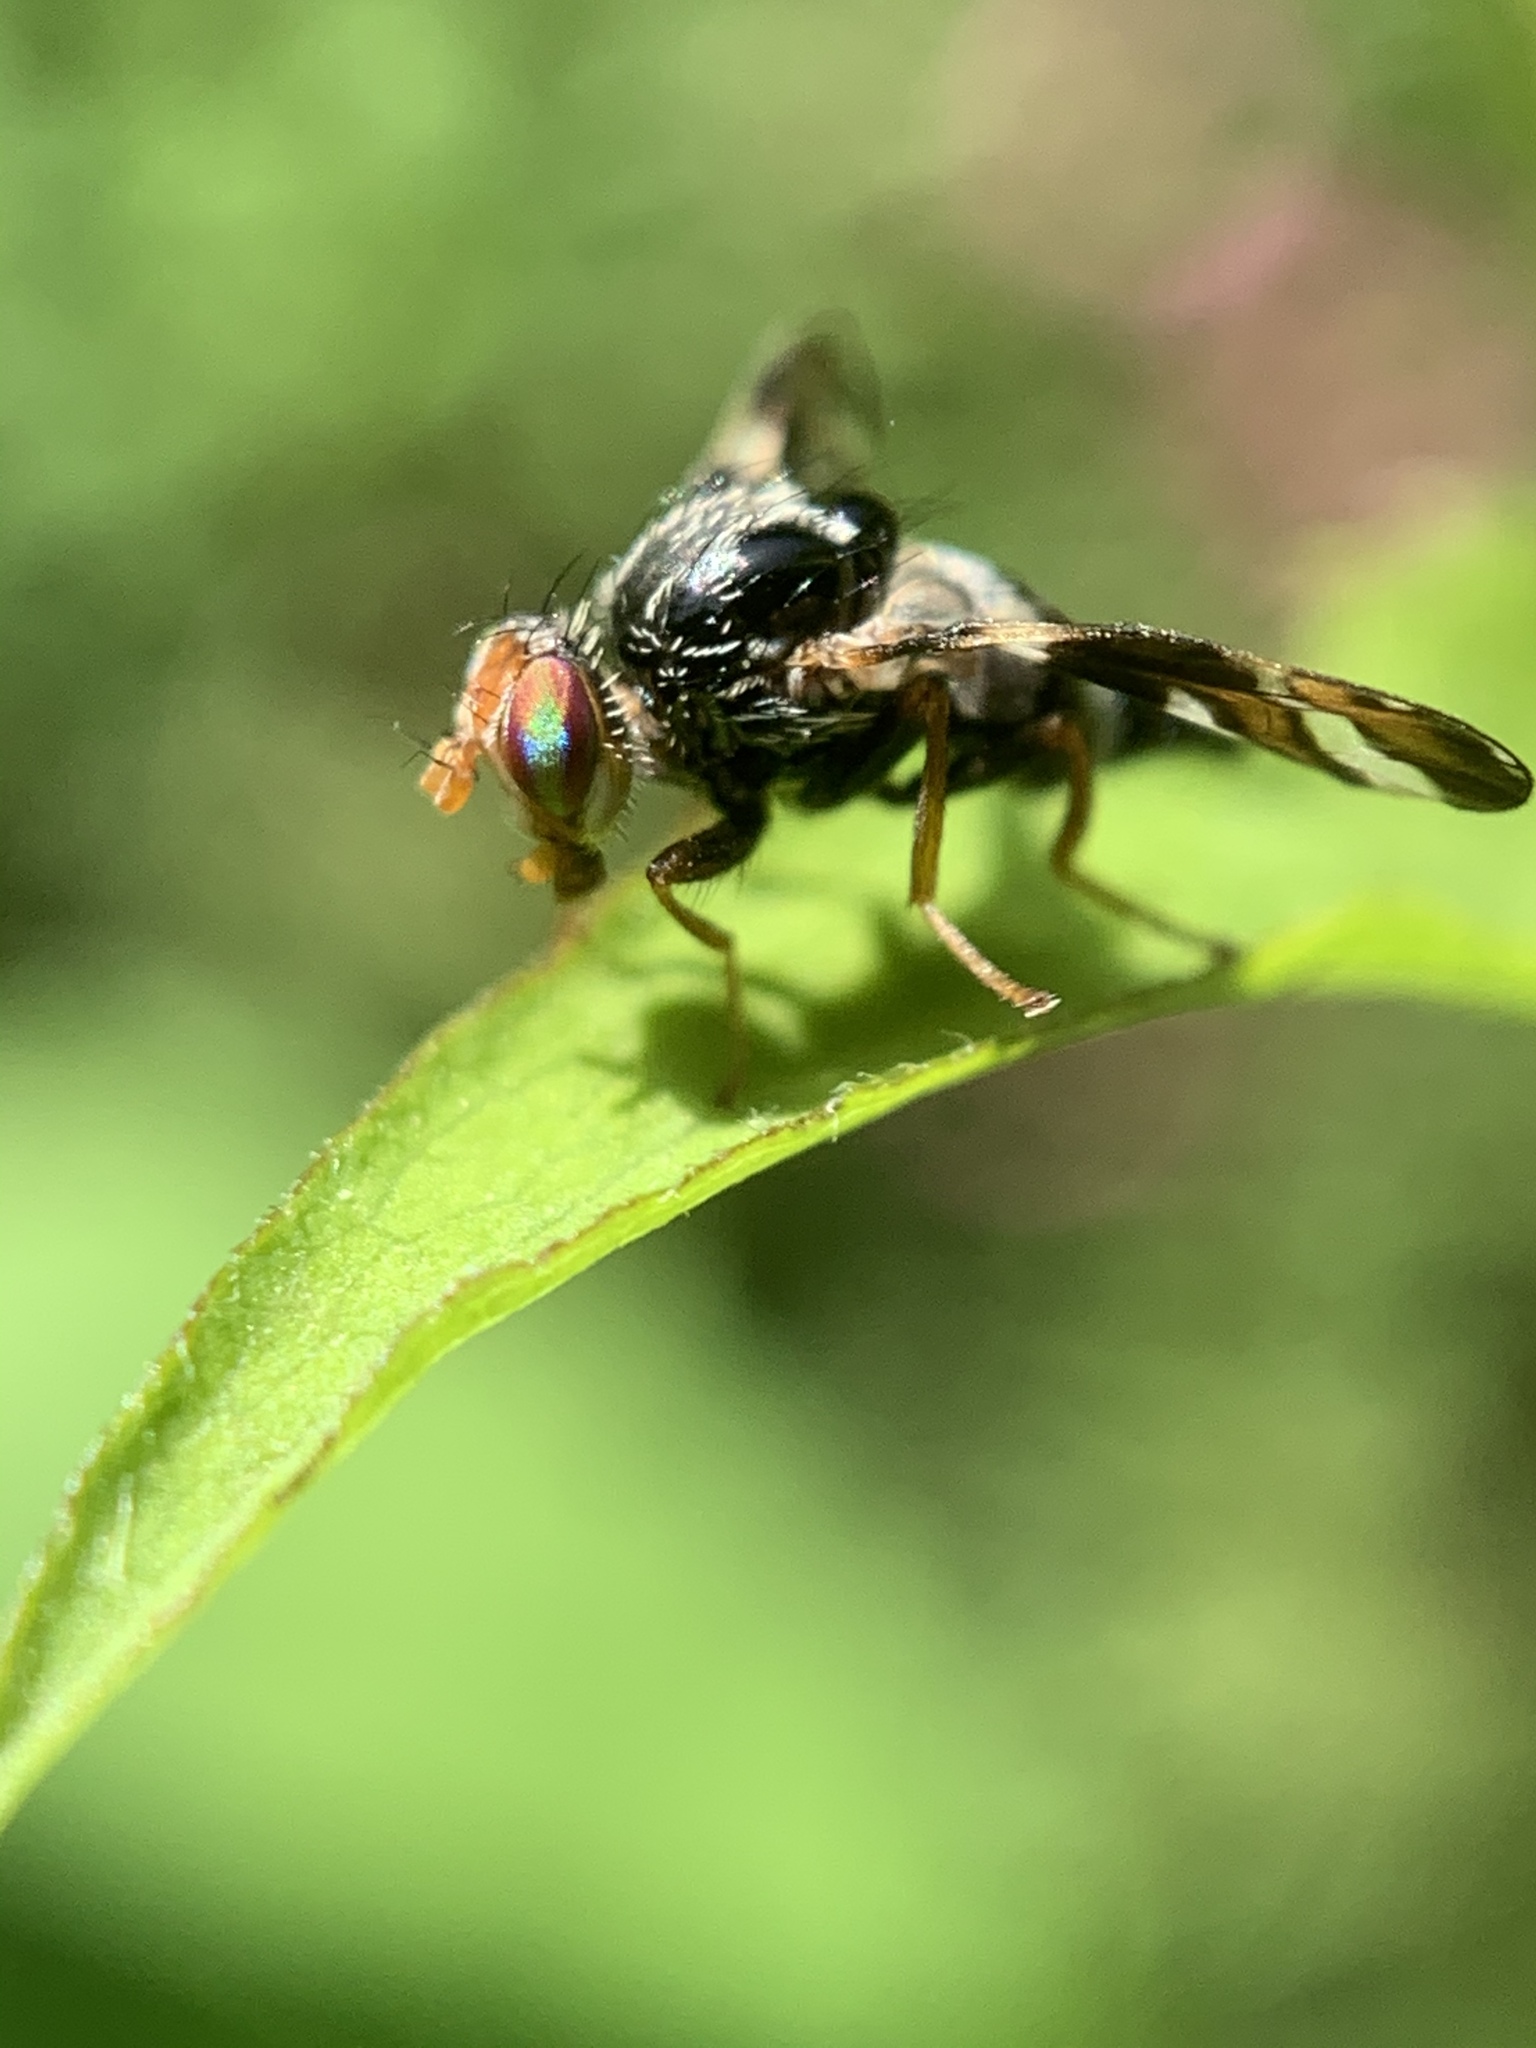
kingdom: Animalia
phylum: Arthropoda
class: Insecta
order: Diptera
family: Tephritidae
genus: Procecidochares
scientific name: Procecidochares atra
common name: Goldenrod brussels sprout gall fly
